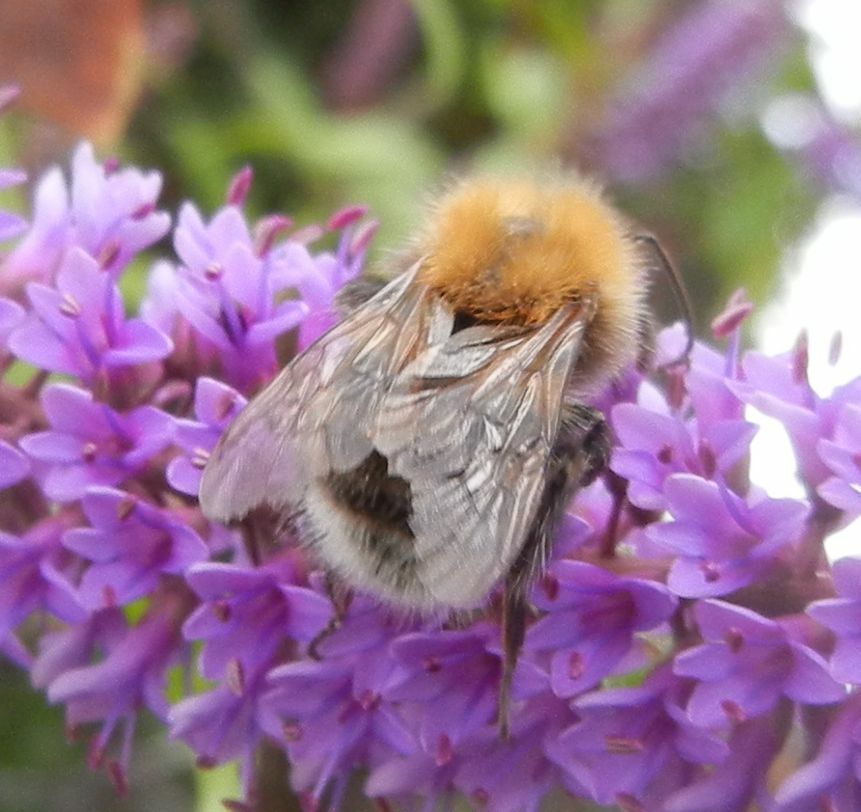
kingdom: Animalia
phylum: Arthropoda
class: Insecta
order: Hymenoptera
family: Apidae
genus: Bombus
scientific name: Bombus hypnorum
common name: New garden bumblebee
